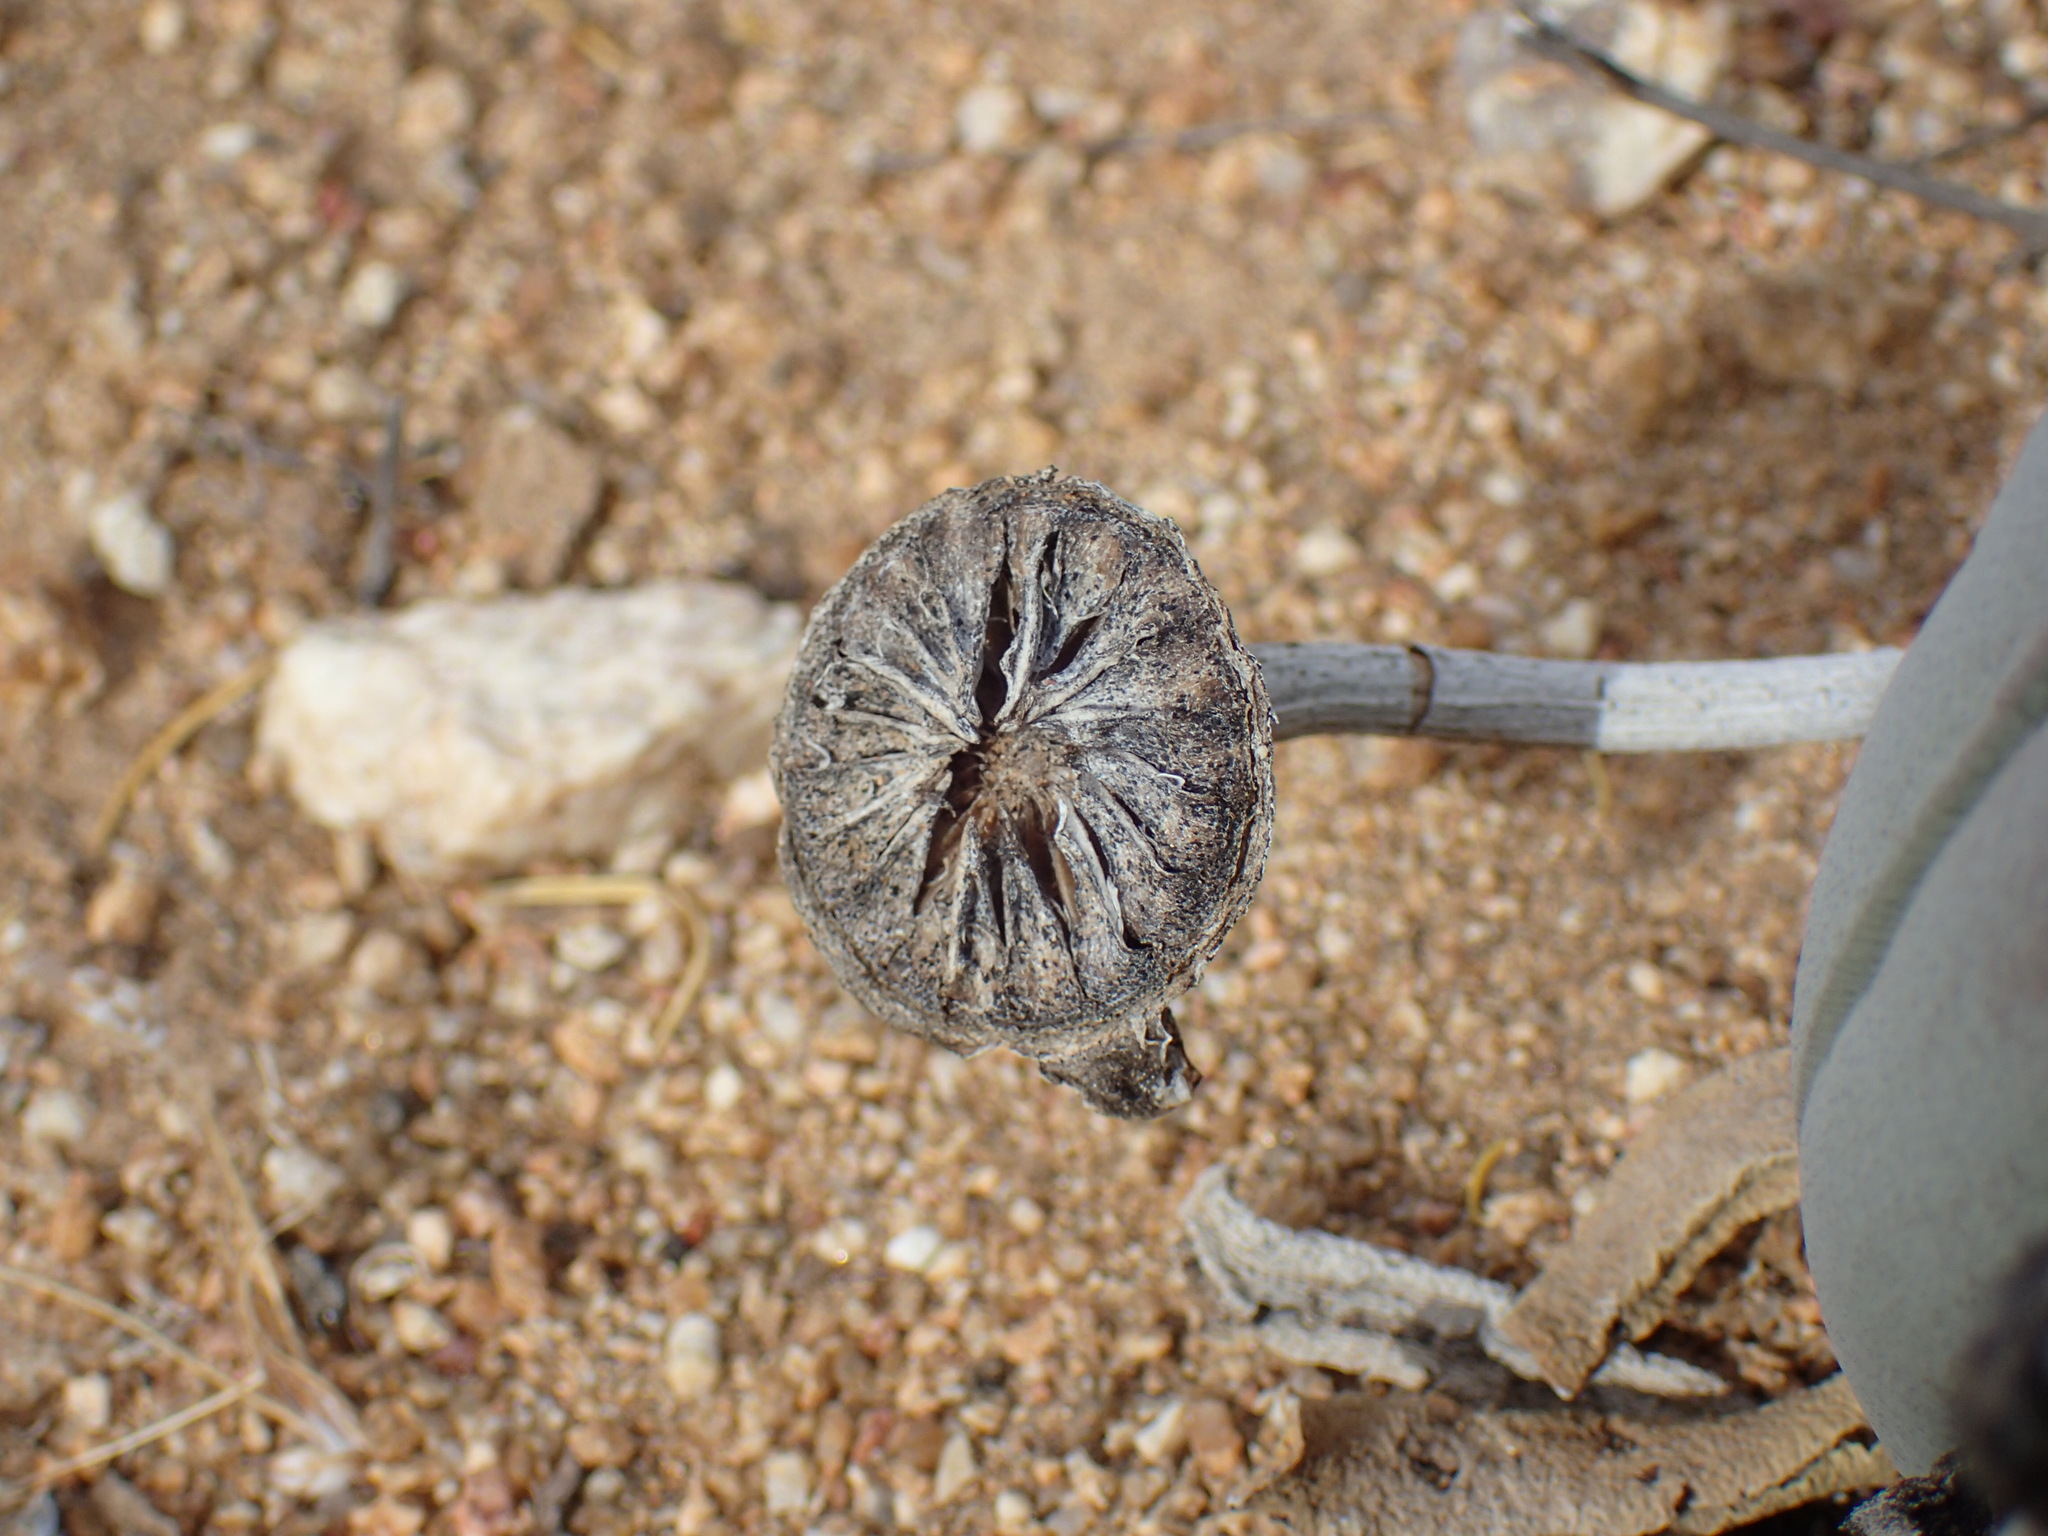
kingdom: Plantae
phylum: Tracheophyta
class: Magnoliopsida
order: Caryophyllales
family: Aizoaceae
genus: Cheiridopsis
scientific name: Cheiridopsis denticulata
